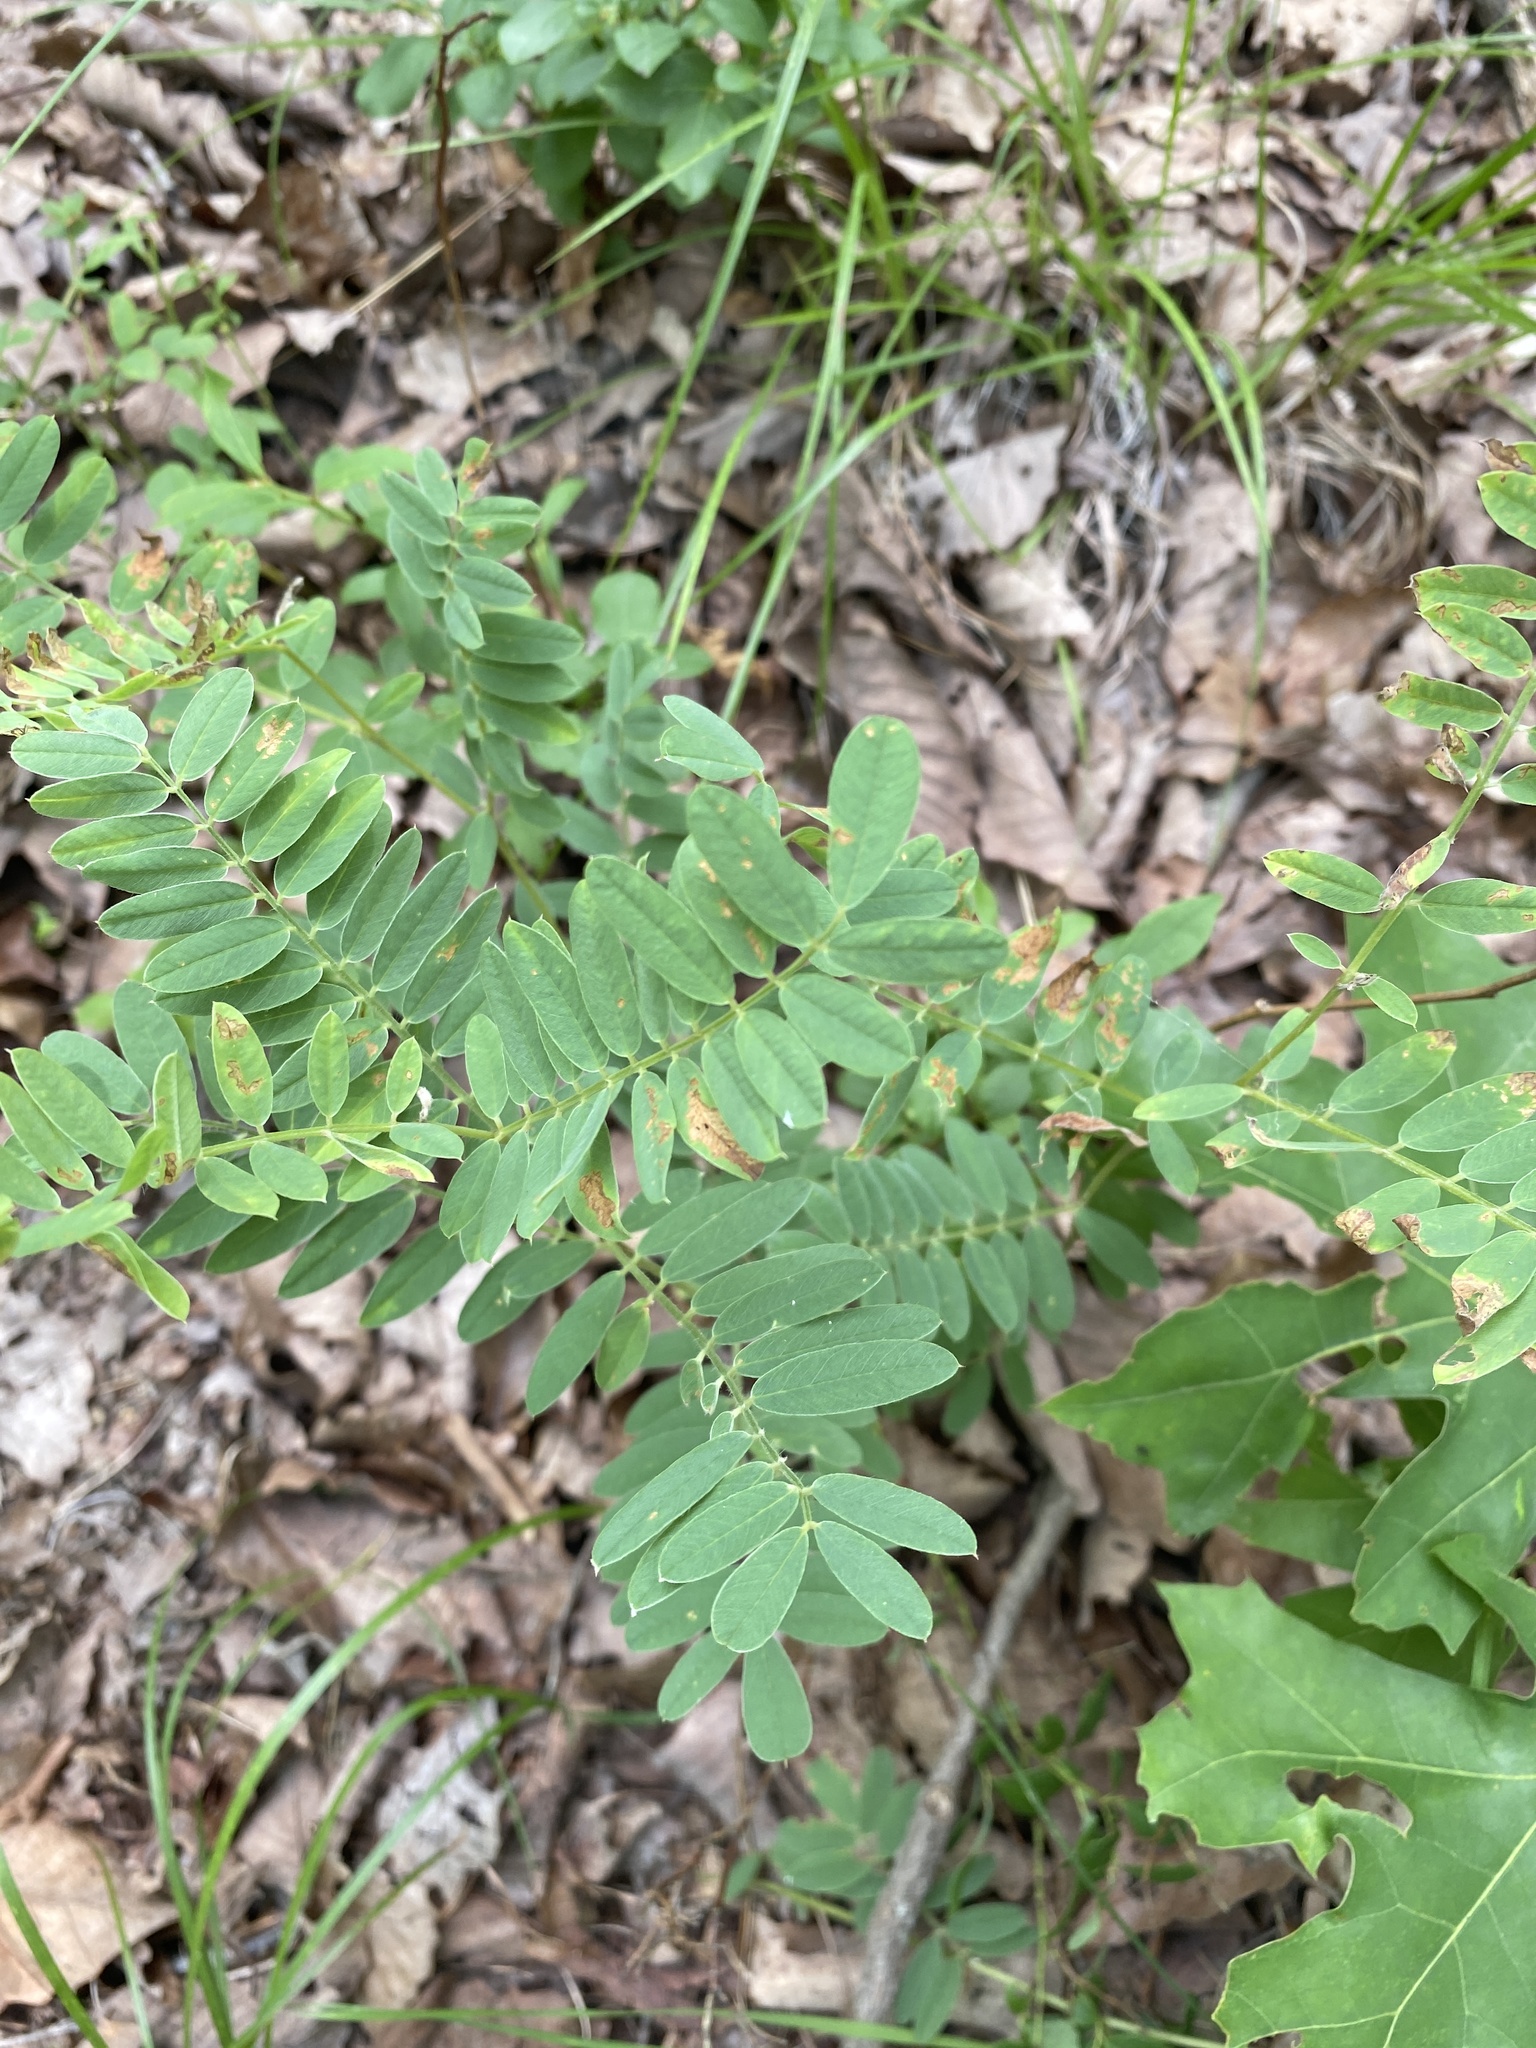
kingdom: Plantae
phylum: Tracheophyta
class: Magnoliopsida
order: Fabales
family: Fabaceae
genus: Tephrosia
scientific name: Tephrosia virginiana
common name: Rabbit-pea
